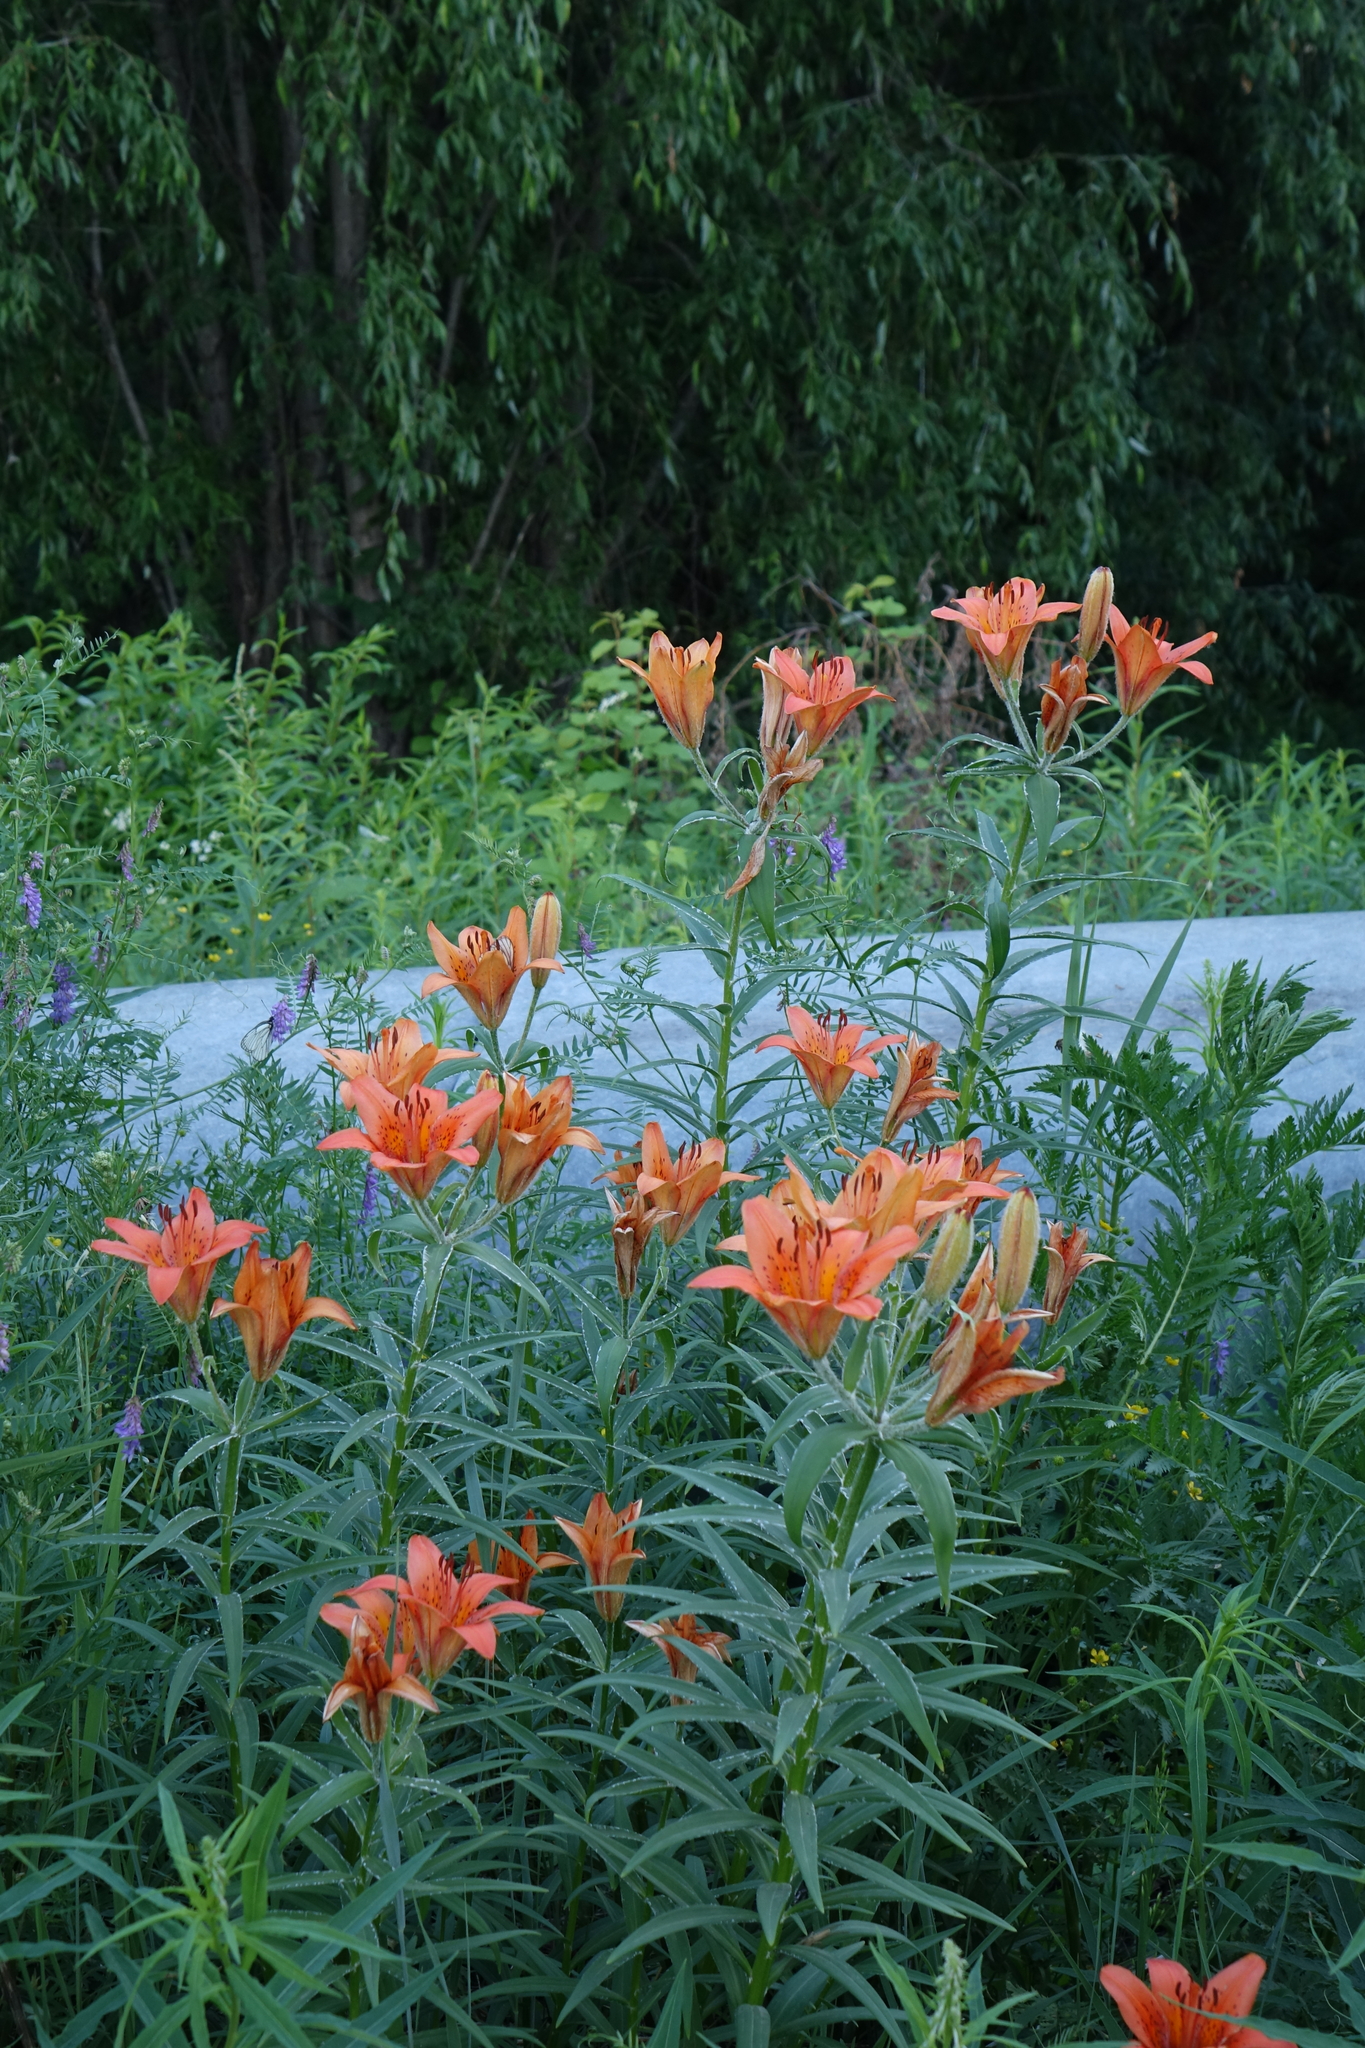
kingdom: Plantae
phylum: Tracheophyta
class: Liliopsida
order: Liliales
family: Liliaceae
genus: Lilium
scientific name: Lilium pensylvanicum
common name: Candlestick lily
